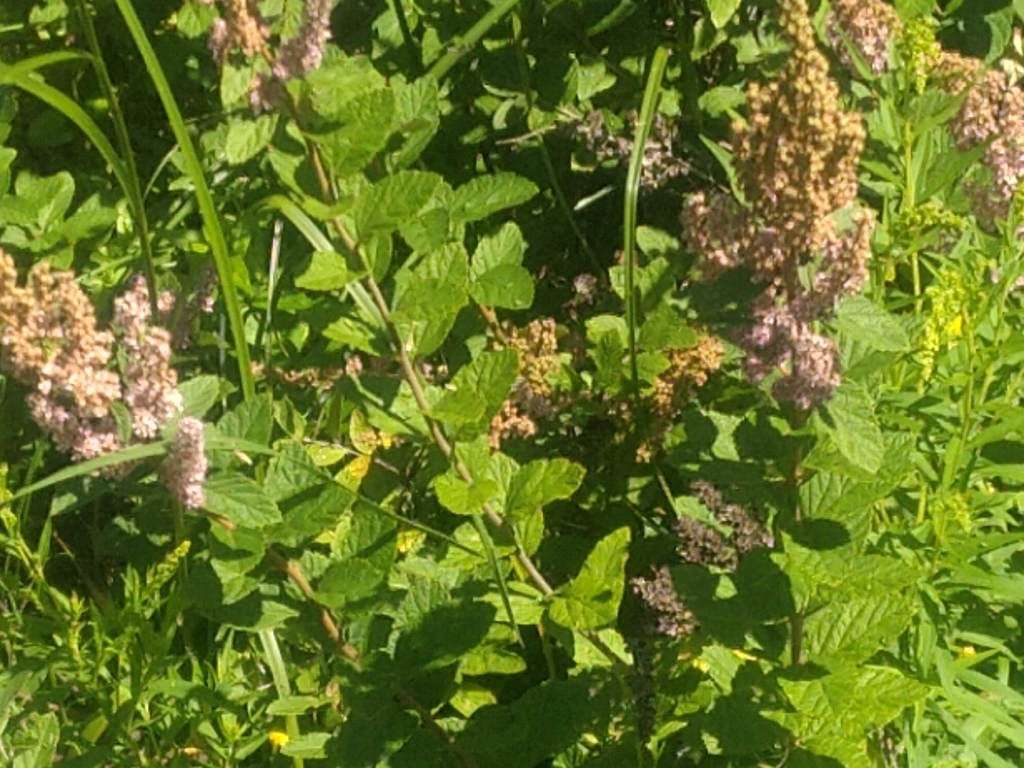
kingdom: Plantae
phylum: Tracheophyta
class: Magnoliopsida
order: Rosales
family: Rosaceae
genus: Spiraea
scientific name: Spiraea tomentosa
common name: Hardhack
